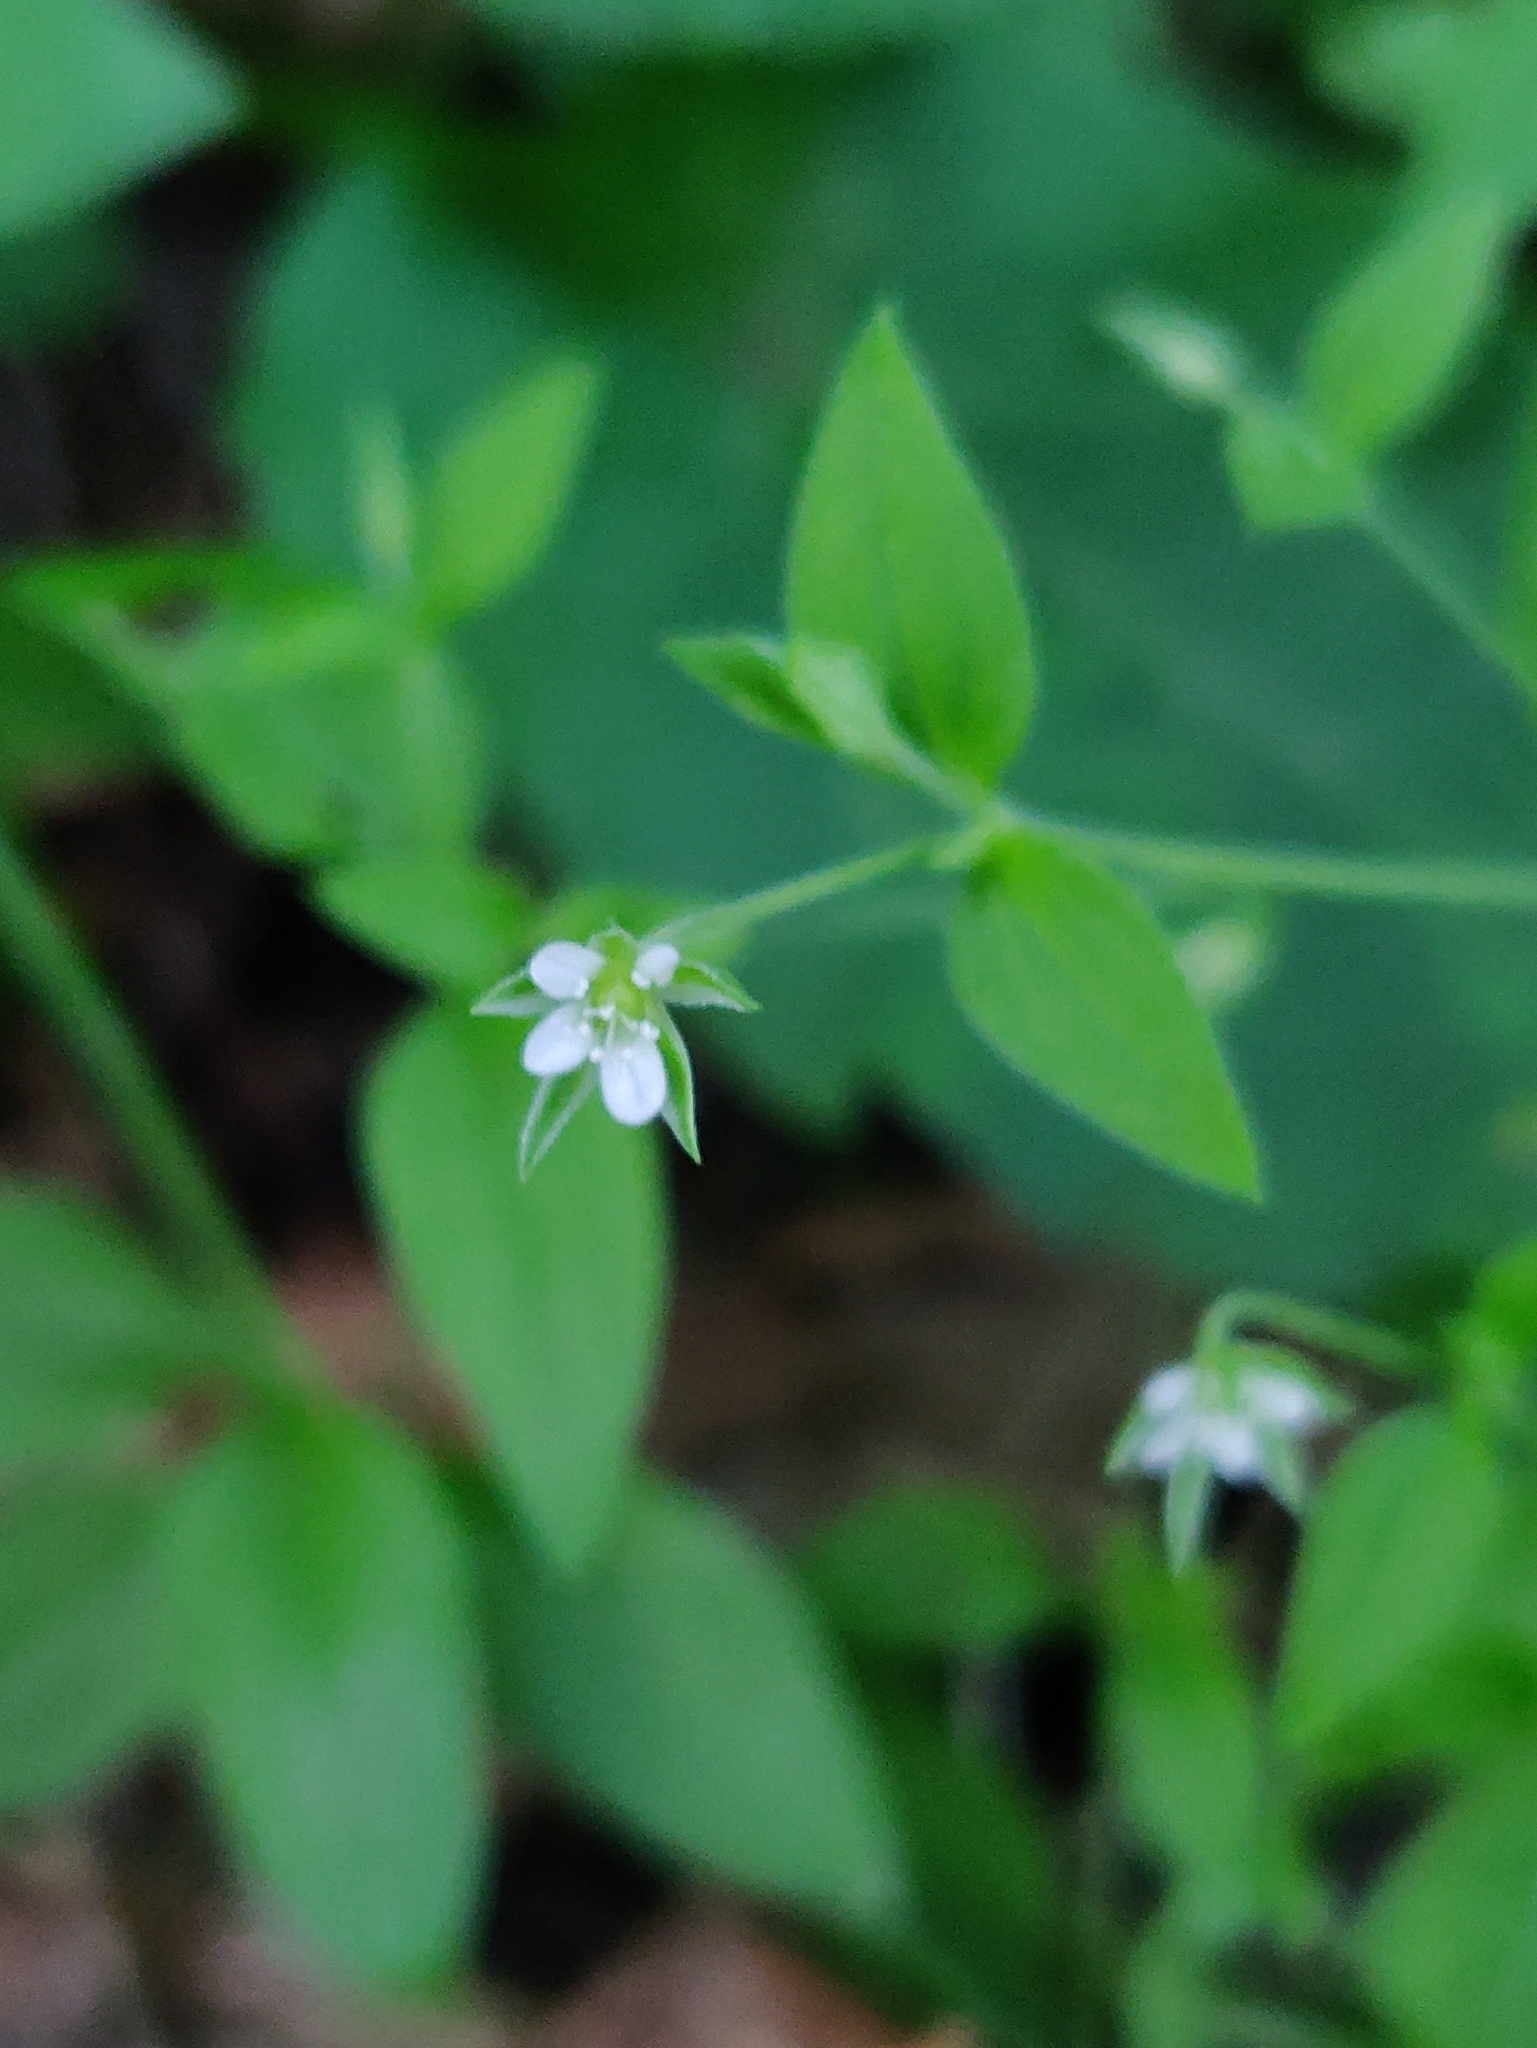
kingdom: Plantae
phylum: Tracheophyta
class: Magnoliopsida
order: Caryophyllales
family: Caryophyllaceae
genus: Moehringia
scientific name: Moehringia trinervia
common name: Three-nerved sandwort
